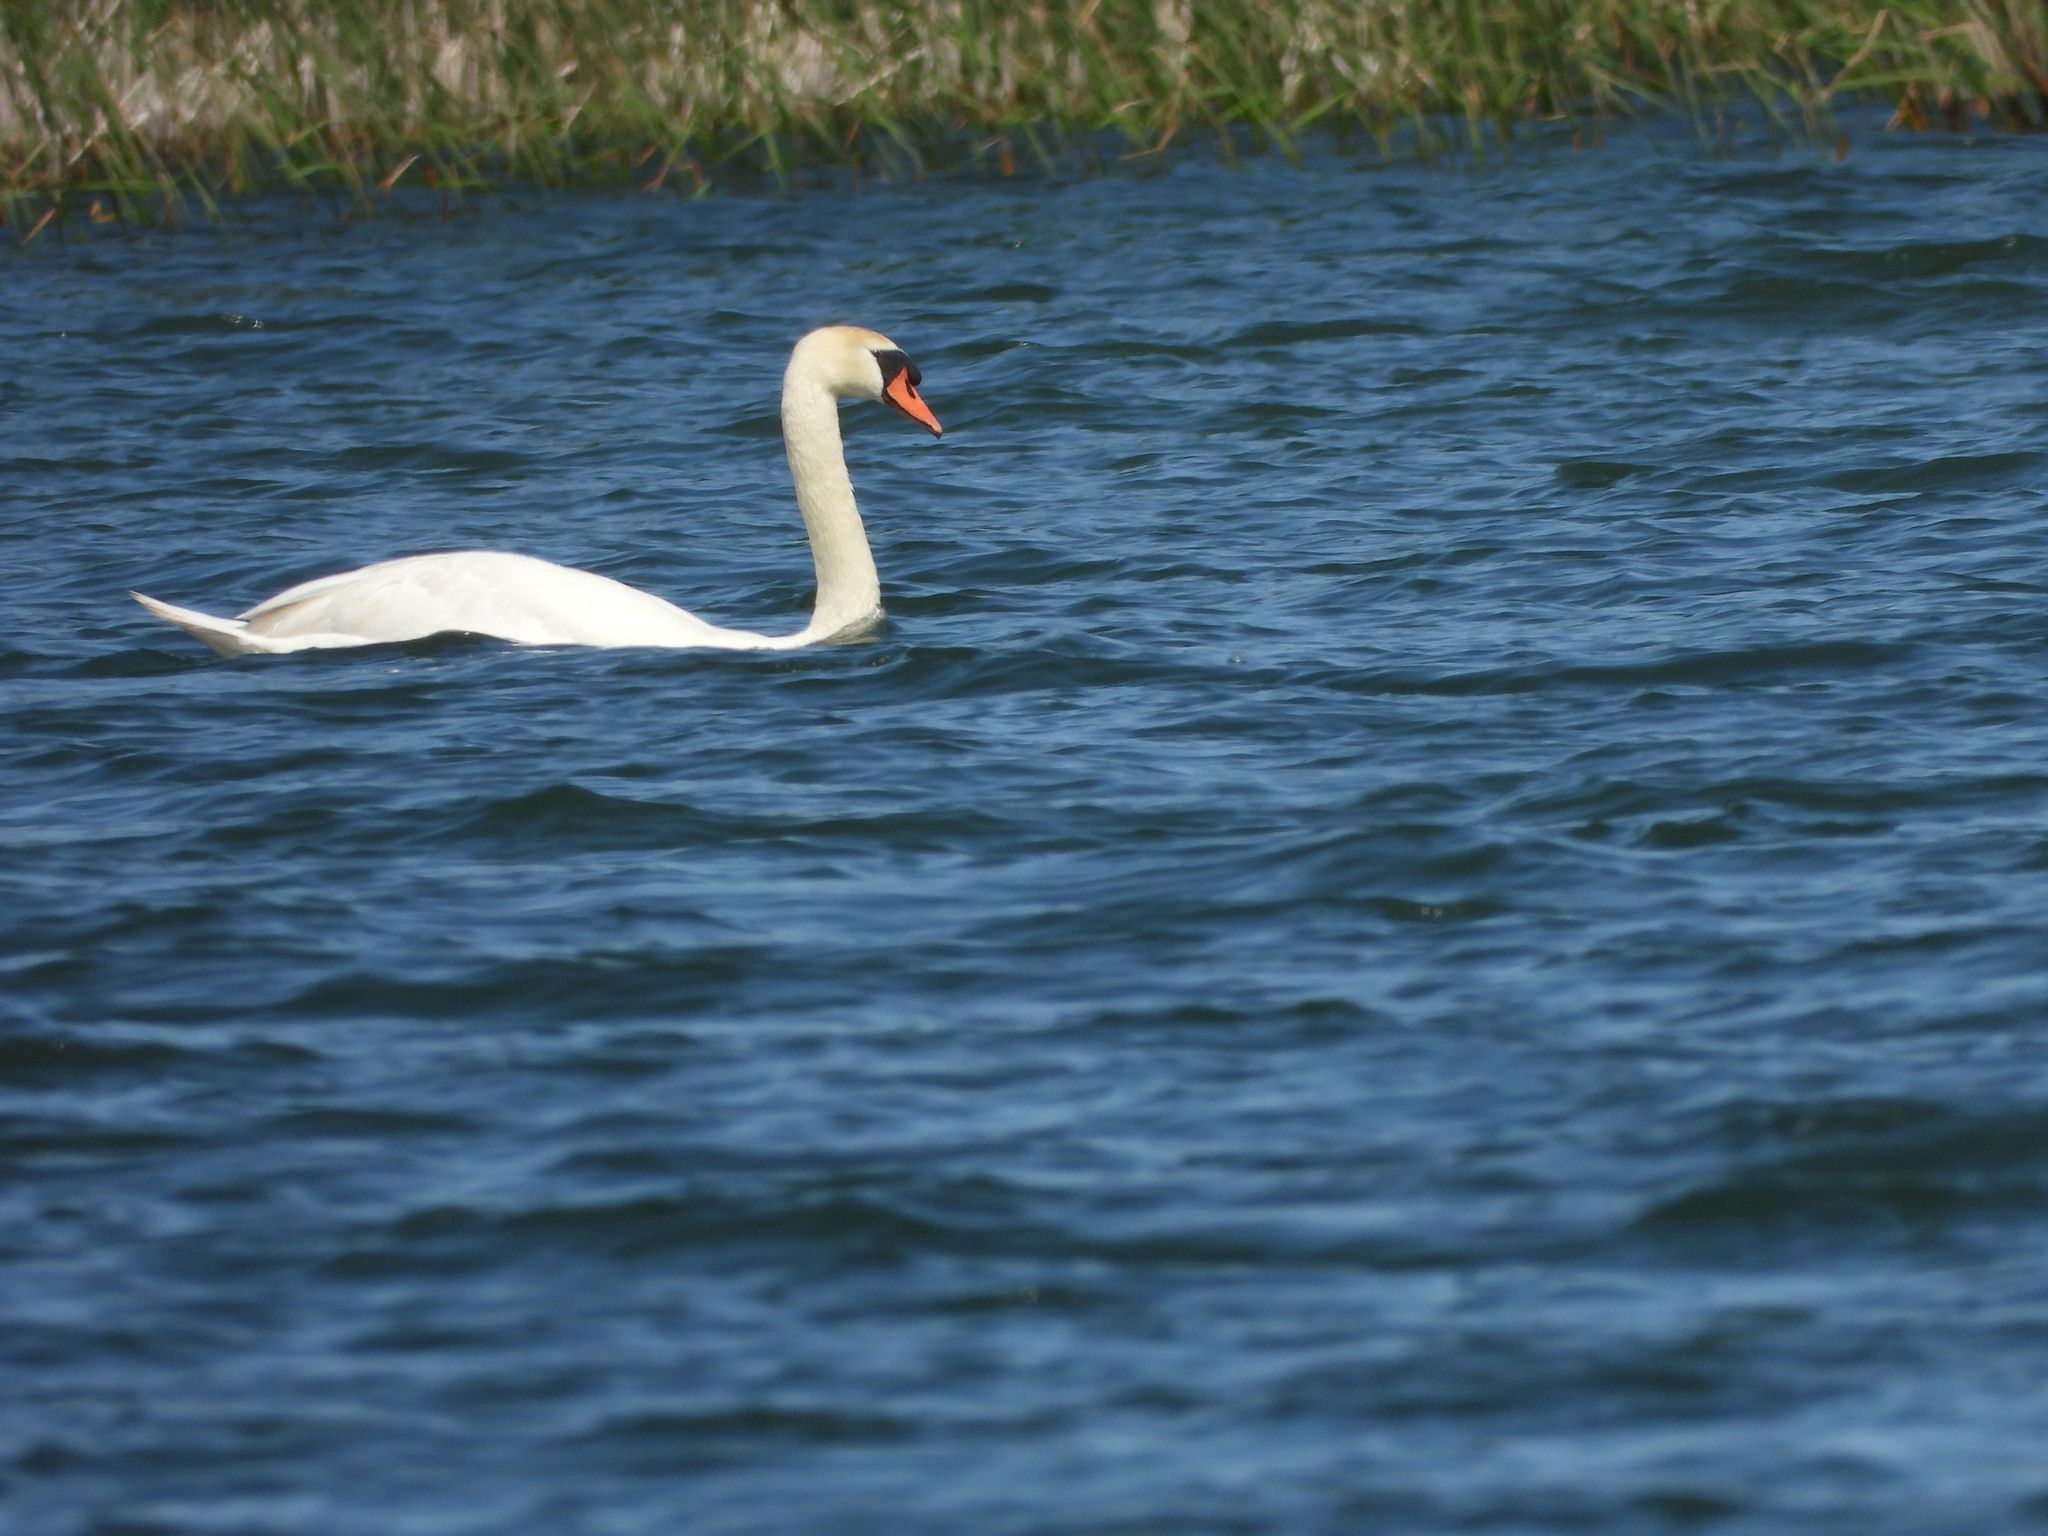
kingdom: Animalia
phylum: Chordata
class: Aves
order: Anseriformes
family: Anatidae
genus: Cygnus
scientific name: Cygnus olor
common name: Mute swan
